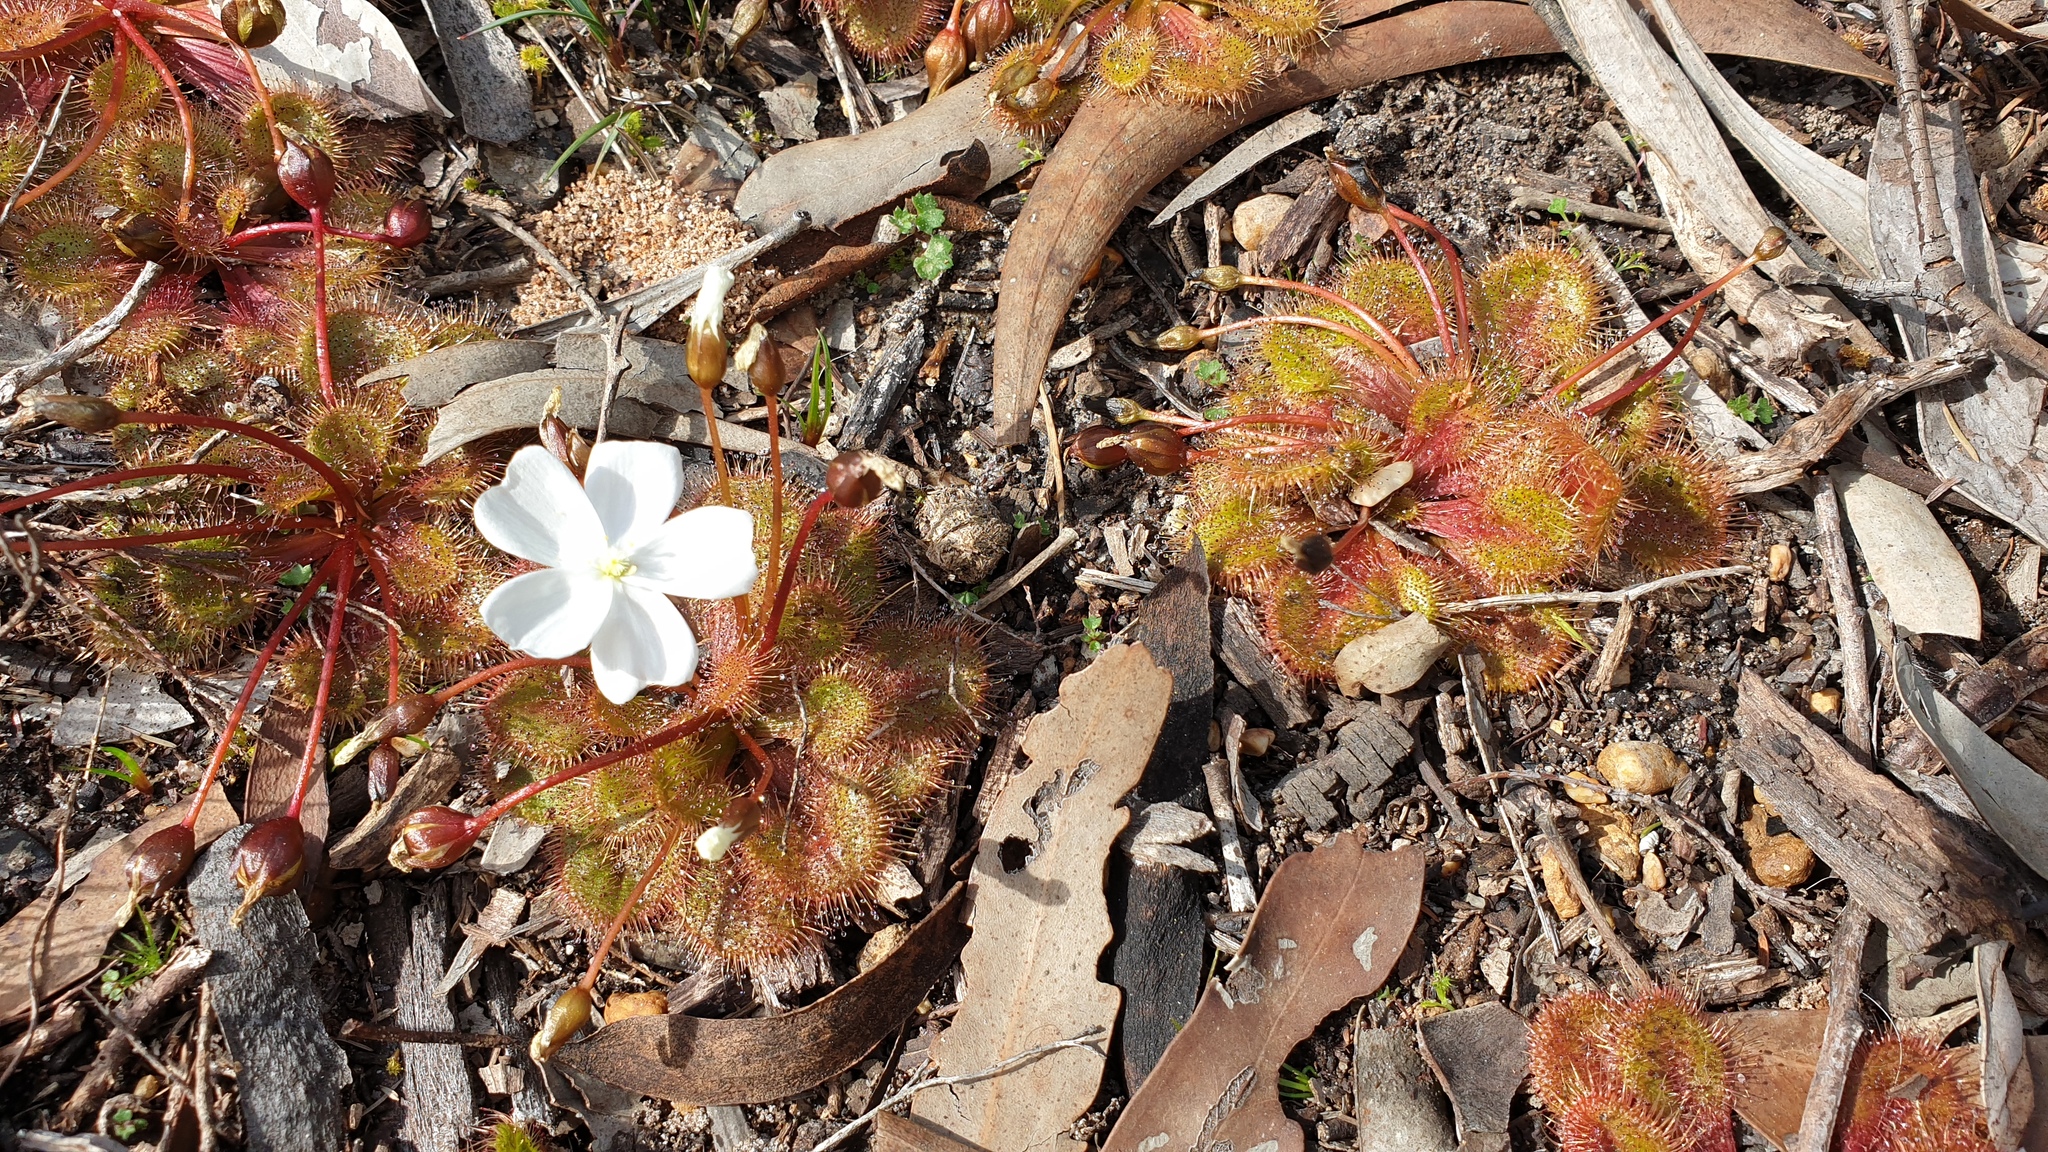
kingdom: Plantae
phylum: Tracheophyta
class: Magnoliopsida
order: Caryophyllales
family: Droseraceae
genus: Drosera
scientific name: Drosera whittakeri
